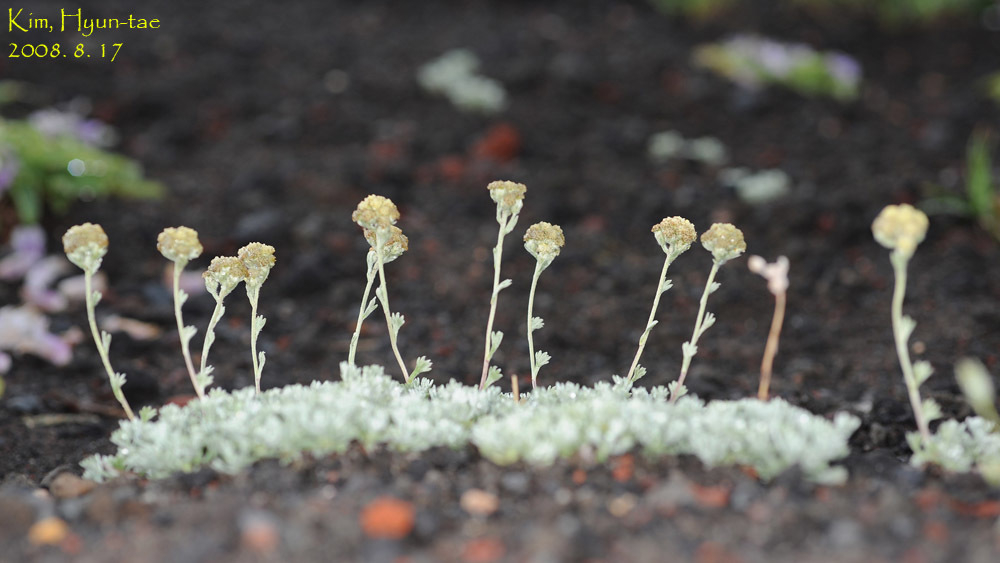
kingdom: Plantae
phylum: Tracheophyta
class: Magnoliopsida
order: Asterales
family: Asteraceae
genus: Artemisia
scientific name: Artemisia glomerata
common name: Pacific alpine wormwood
